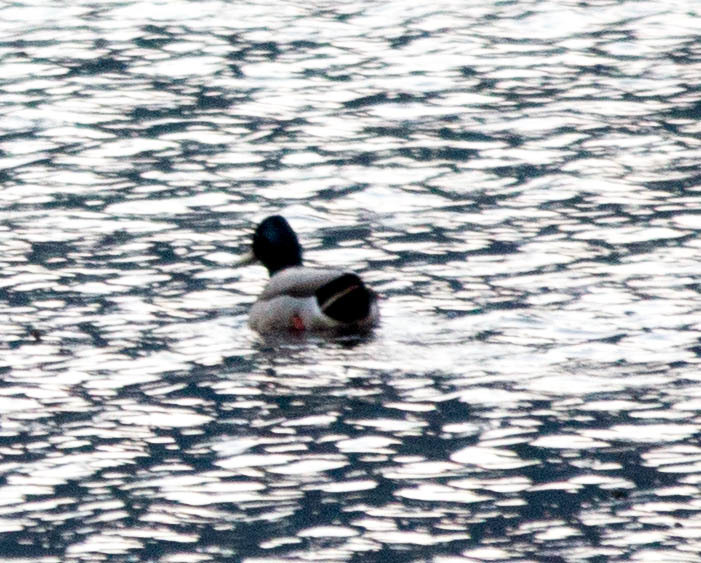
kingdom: Animalia
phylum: Chordata
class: Aves
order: Anseriformes
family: Anatidae
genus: Anas
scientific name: Anas platyrhynchos
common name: Mallard
